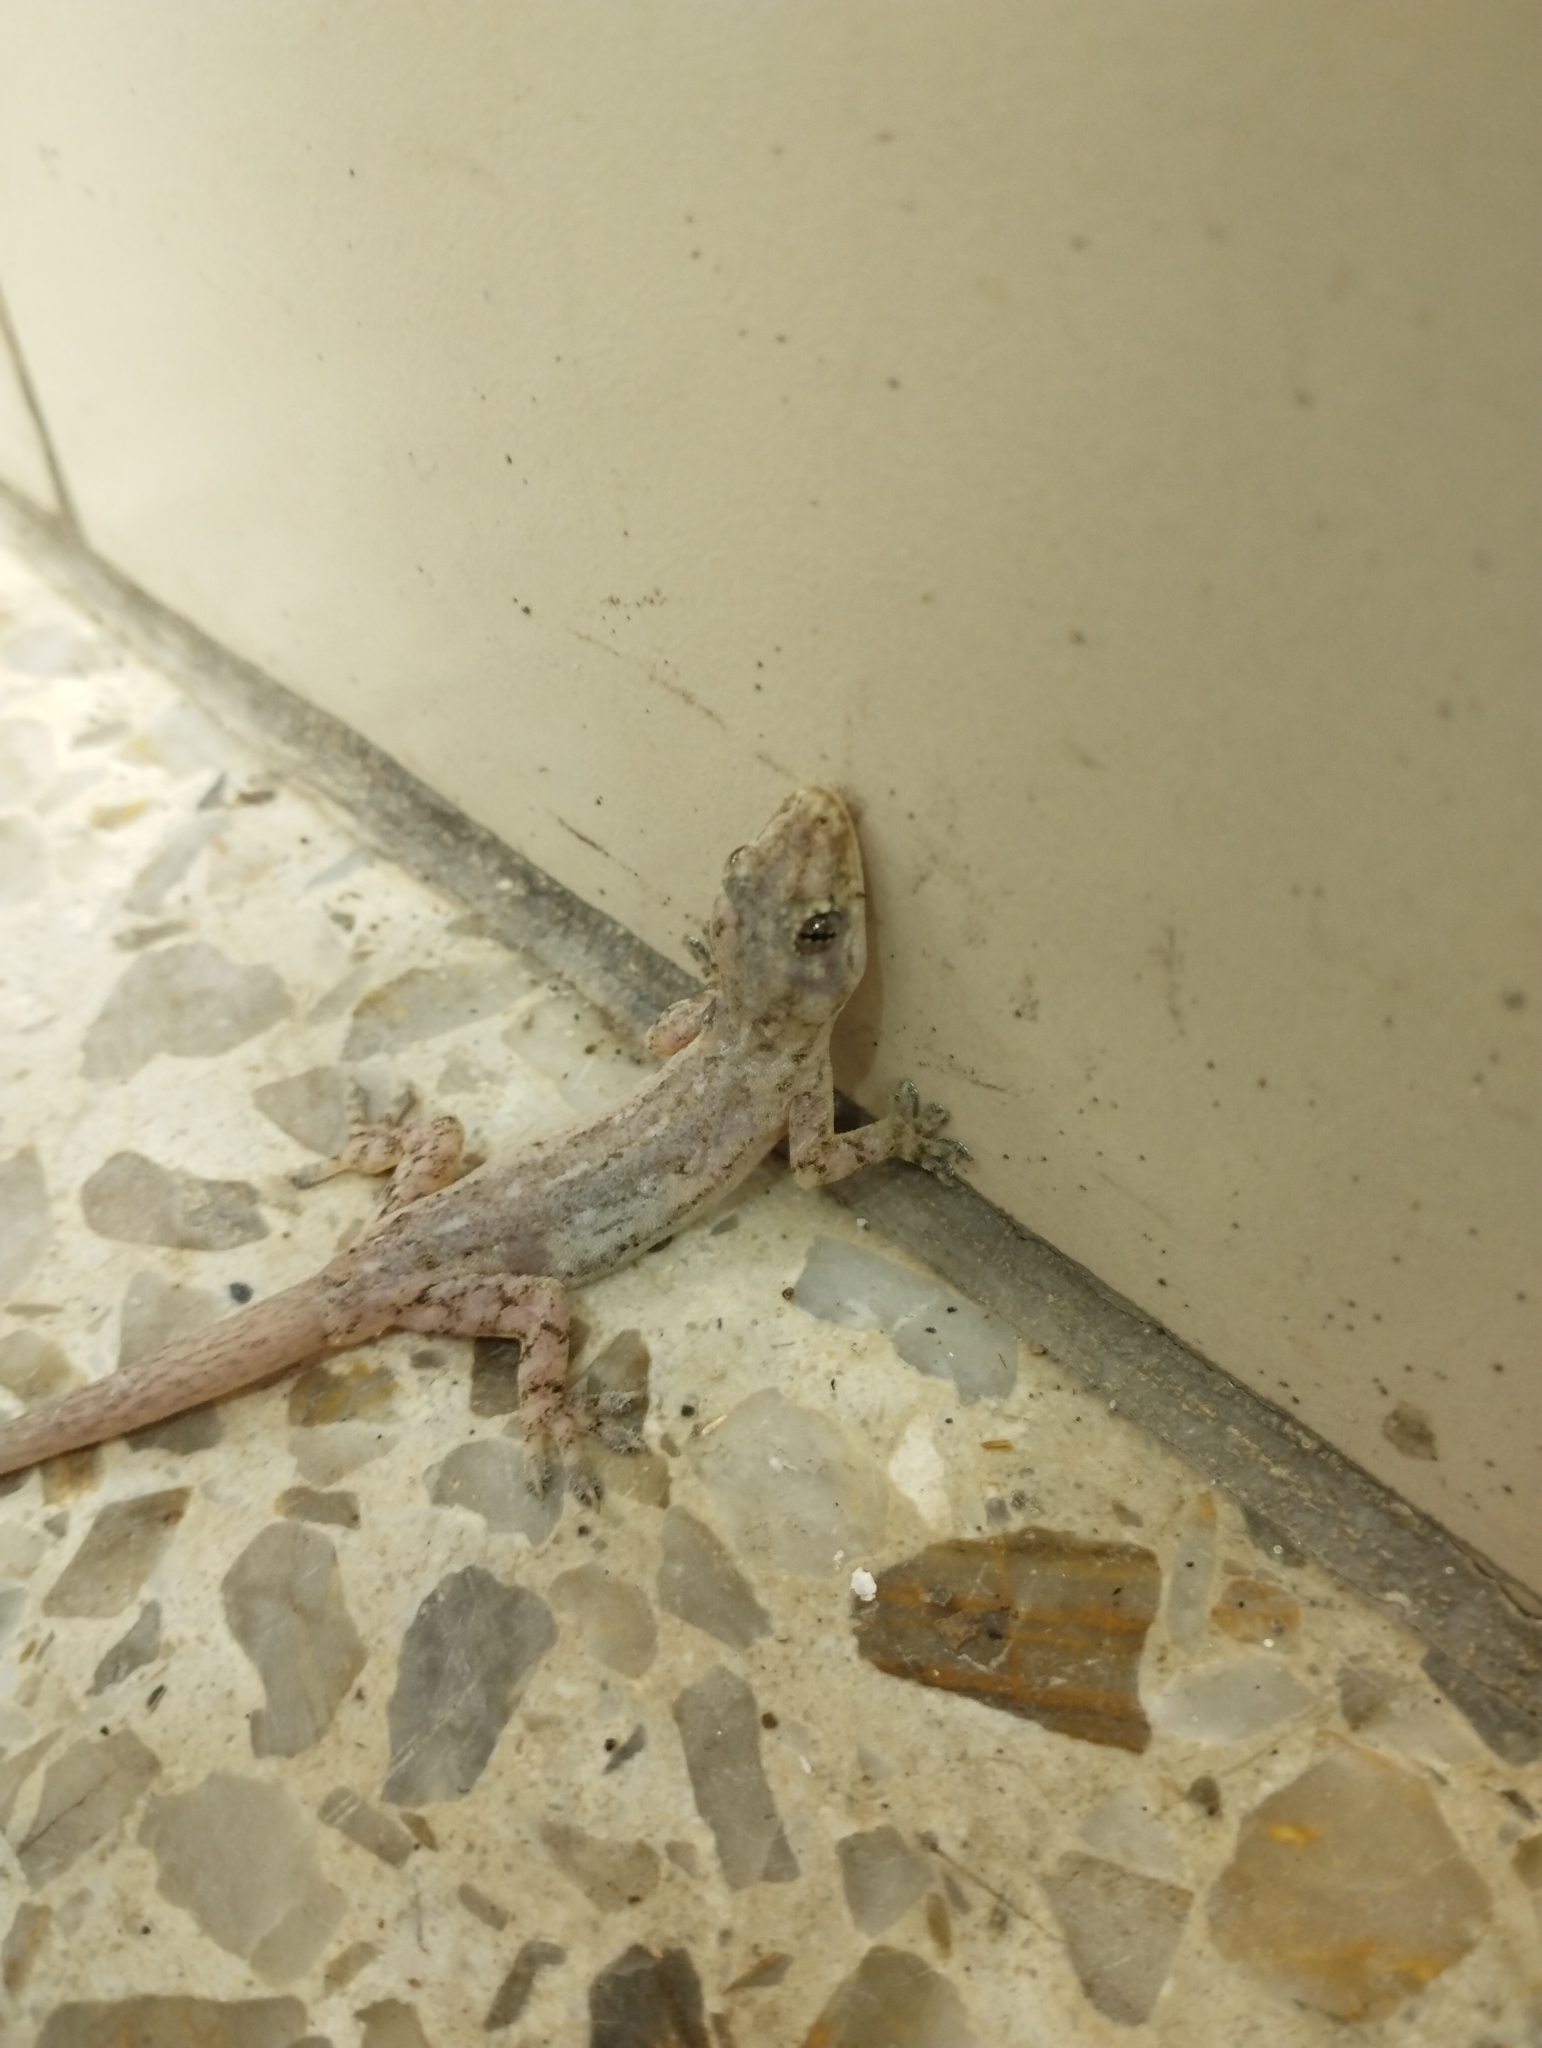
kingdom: Animalia
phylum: Chordata
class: Squamata
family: Gekkonidae
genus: Hemidactylus
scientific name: Hemidactylus frenatus
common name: Common house gecko
